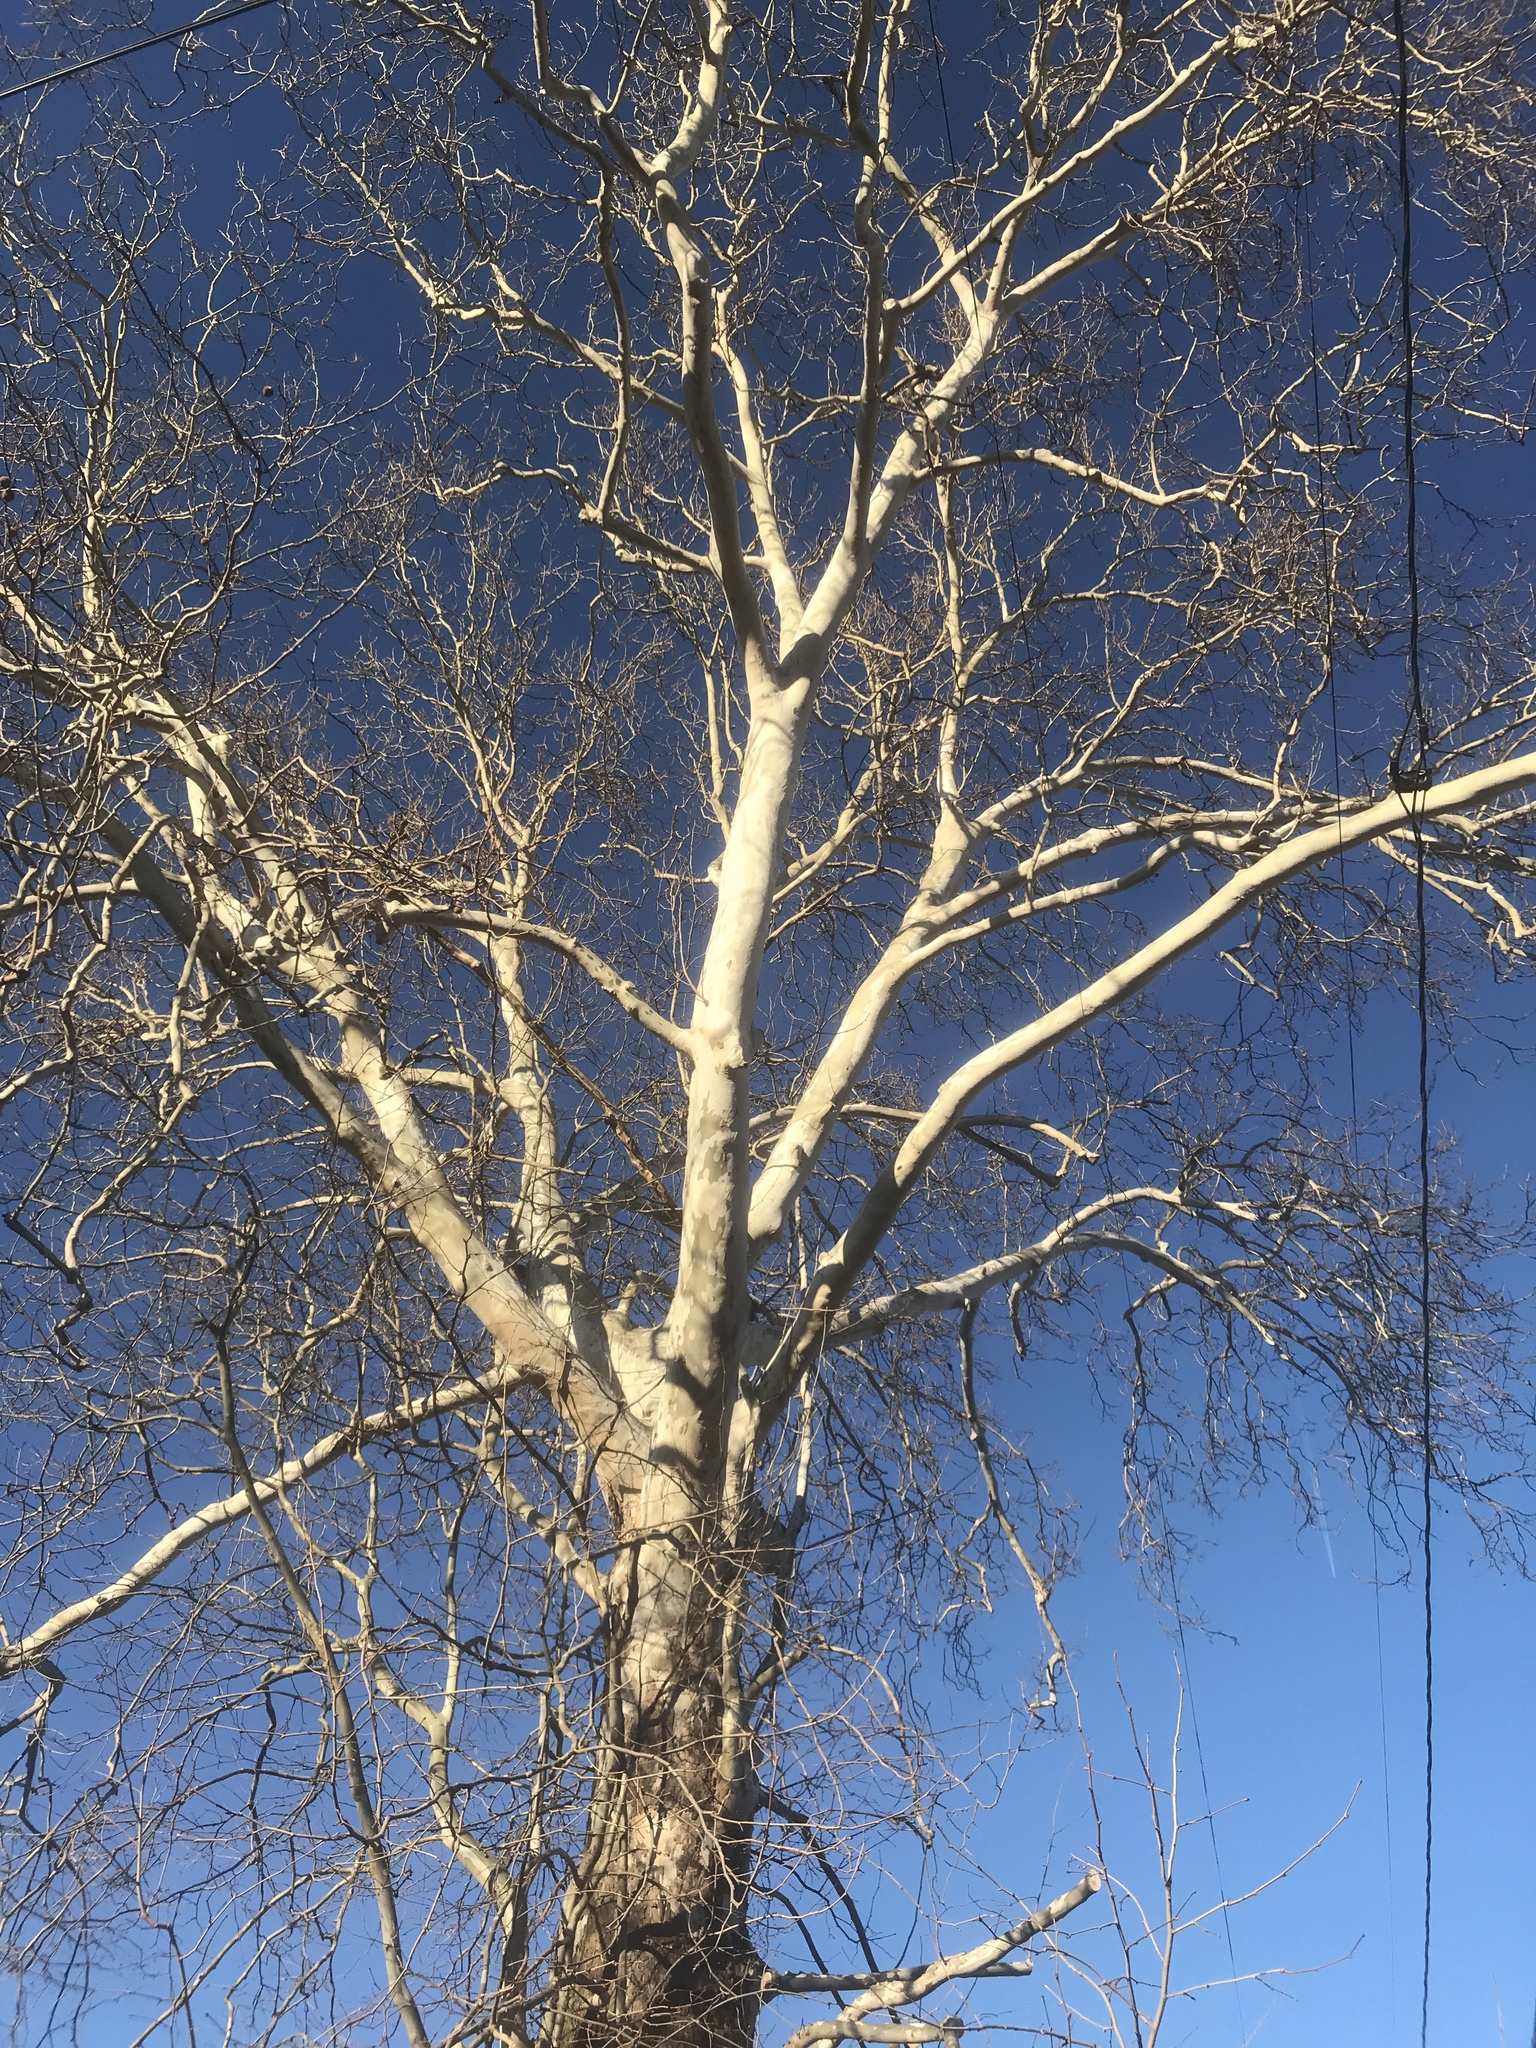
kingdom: Plantae
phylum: Tracheophyta
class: Magnoliopsida
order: Proteales
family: Platanaceae
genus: Platanus
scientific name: Platanus occidentalis
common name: American sycamore
